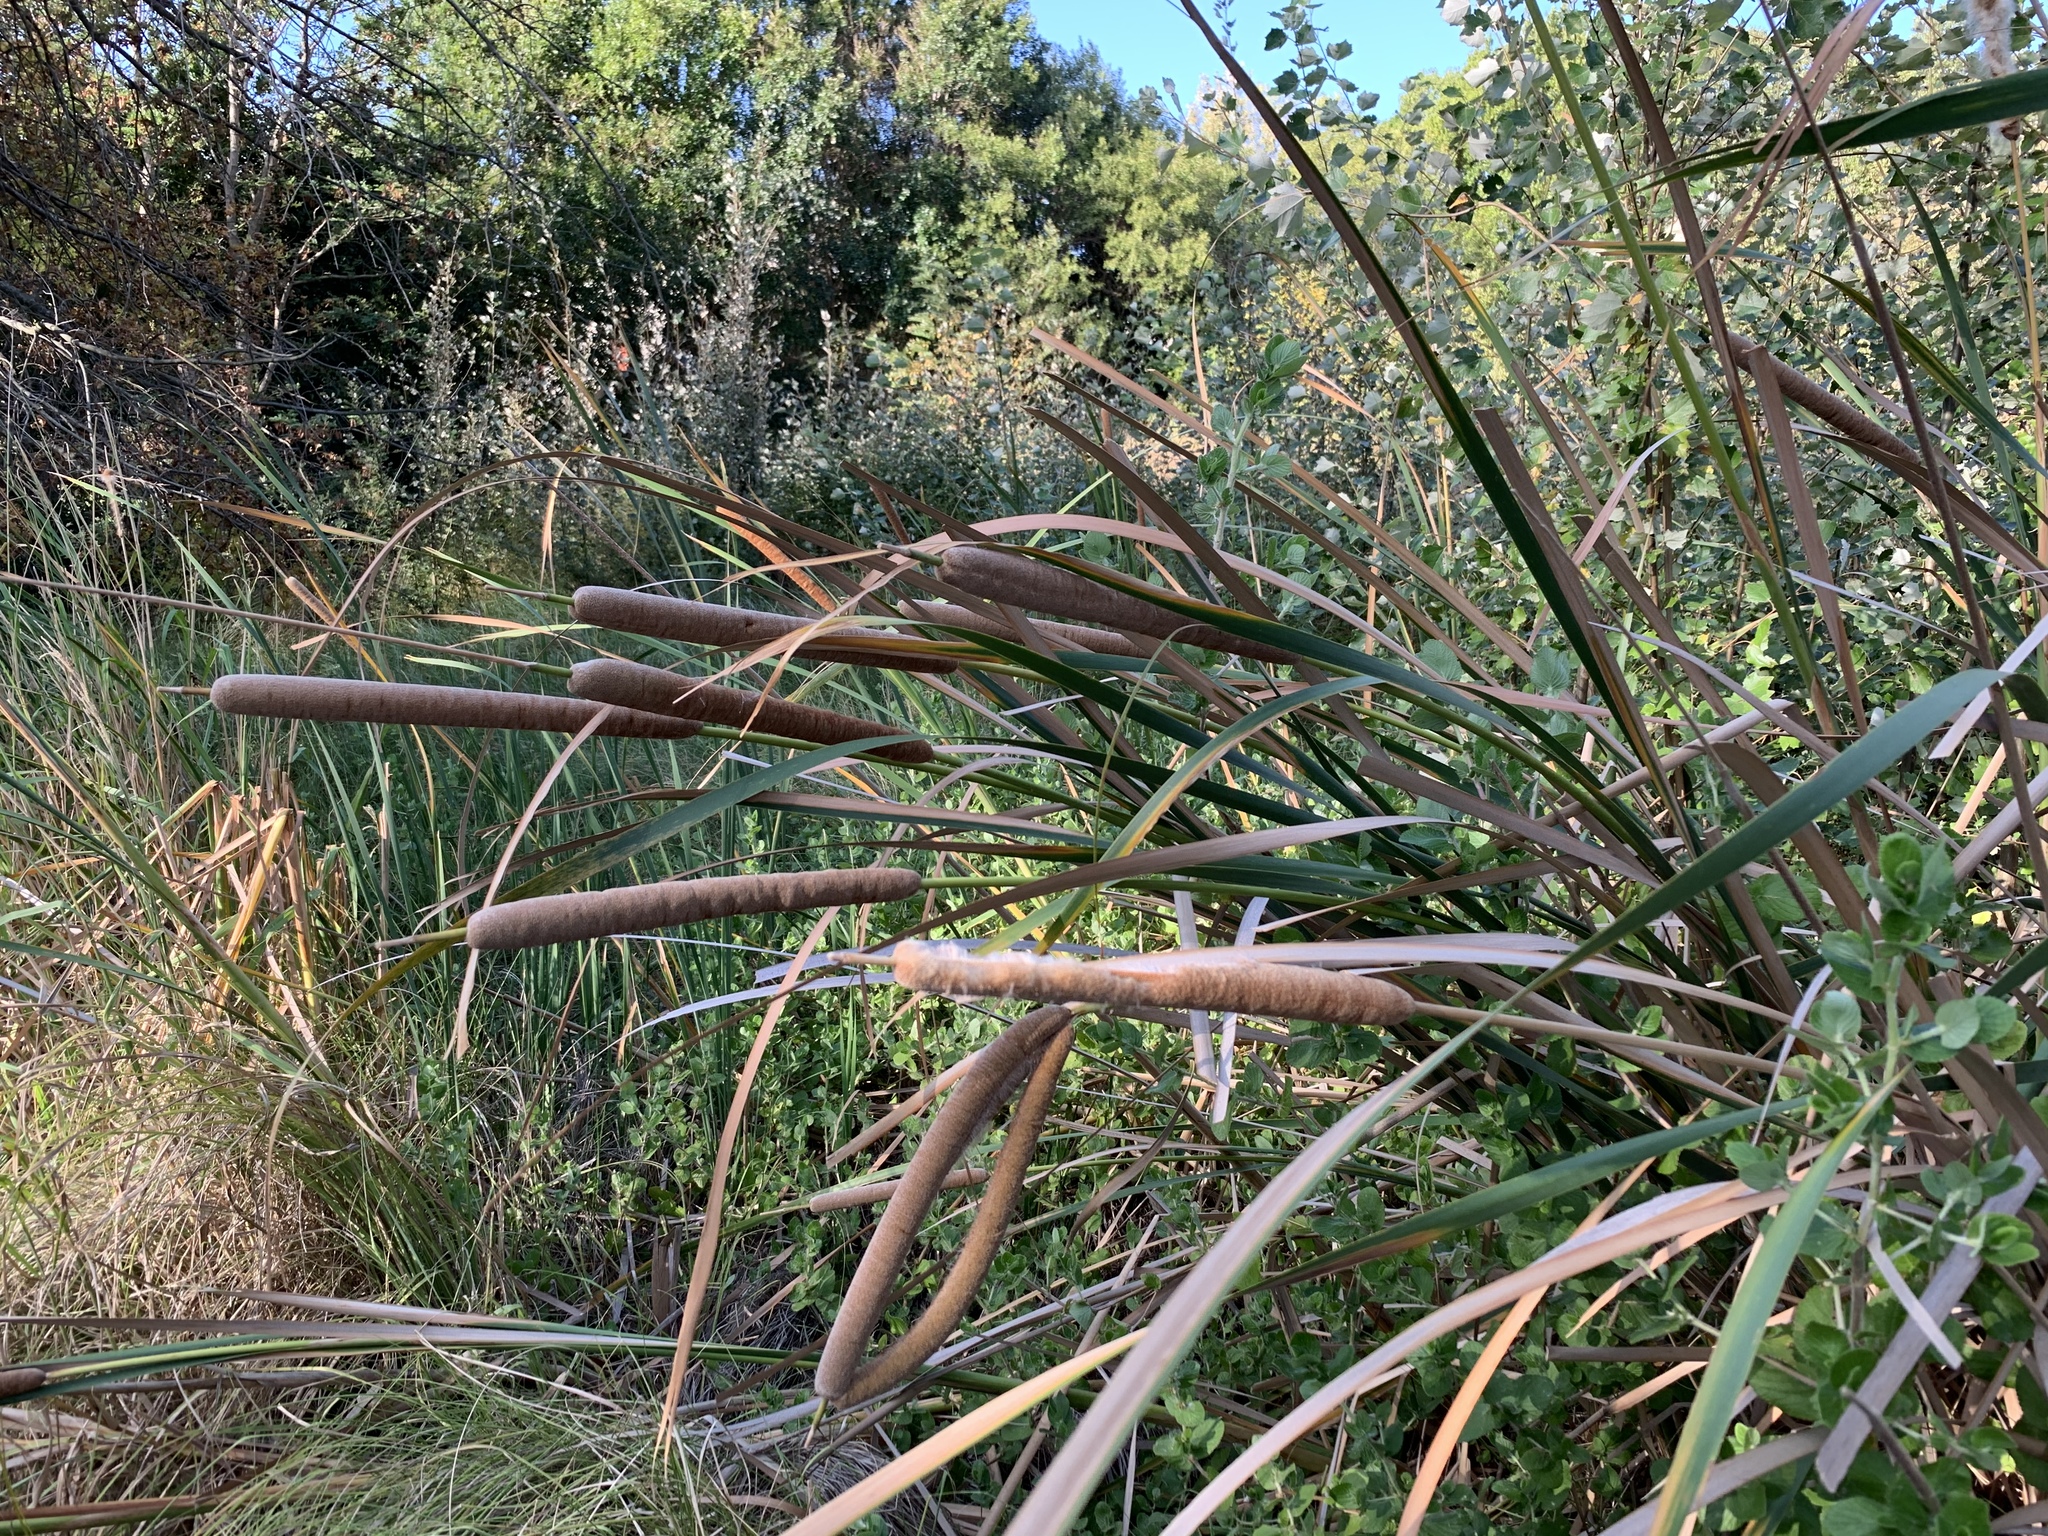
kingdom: Plantae
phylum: Tracheophyta
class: Liliopsida
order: Poales
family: Typhaceae
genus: Typha
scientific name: Typha capensis
